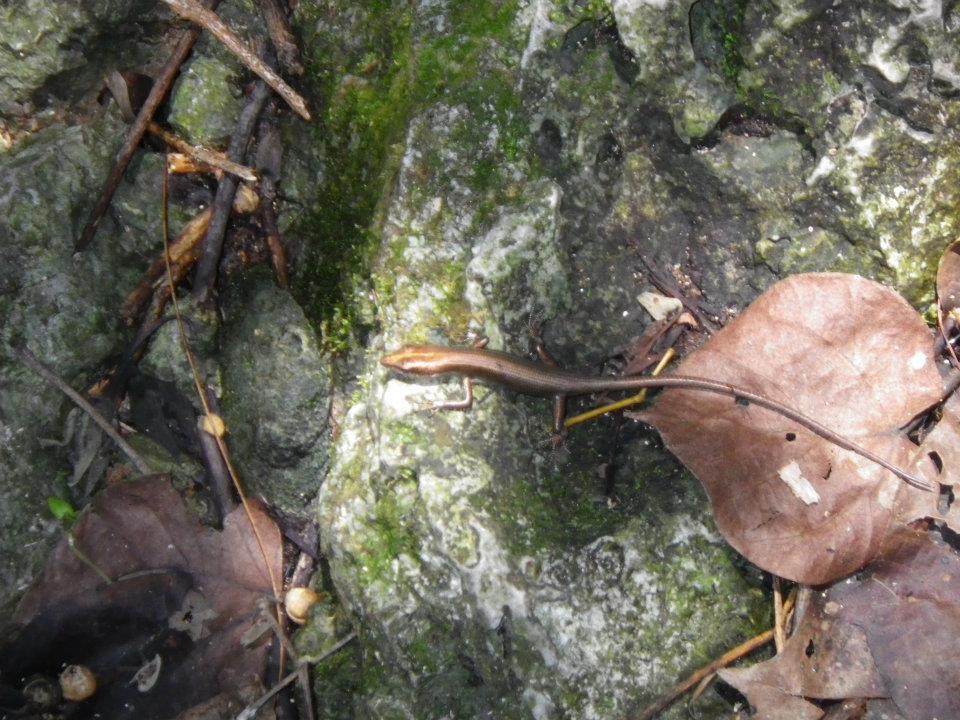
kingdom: Animalia
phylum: Chordata
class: Squamata
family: Scincidae
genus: Emoia
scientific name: Emoia caeruleocauda
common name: Pacific bluetail skink
